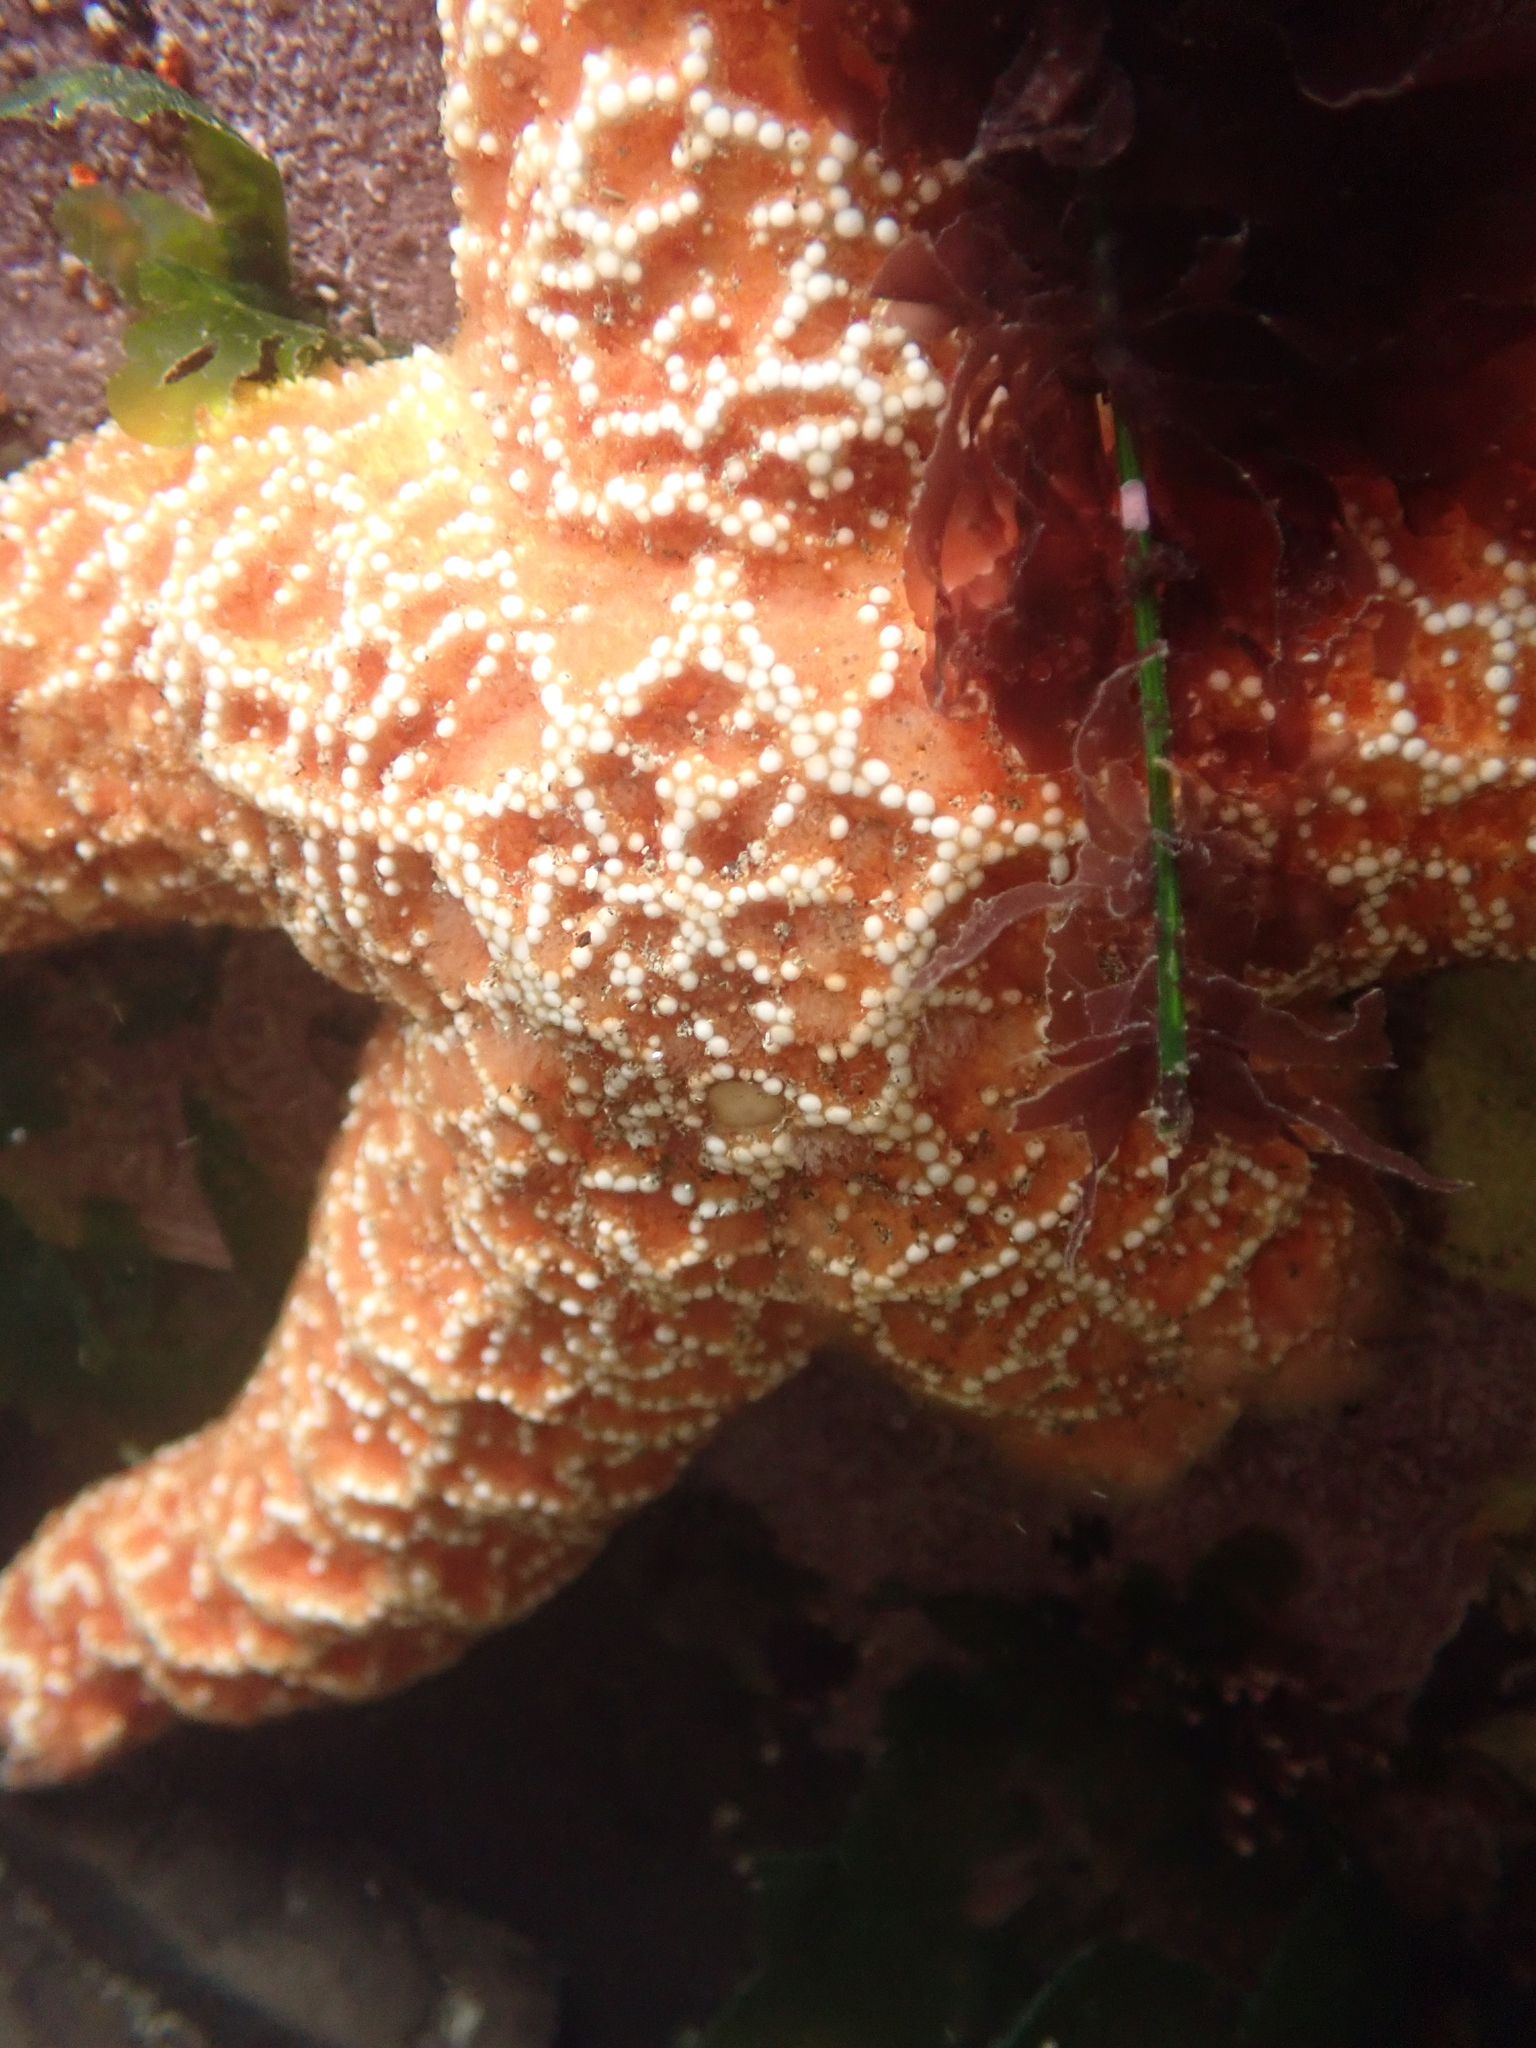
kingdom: Animalia
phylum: Echinodermata
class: Asteroidea
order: Forcipulatida
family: Asteriidae
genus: Pisaster
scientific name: Pisaster ochraceus
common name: Ochre stars
